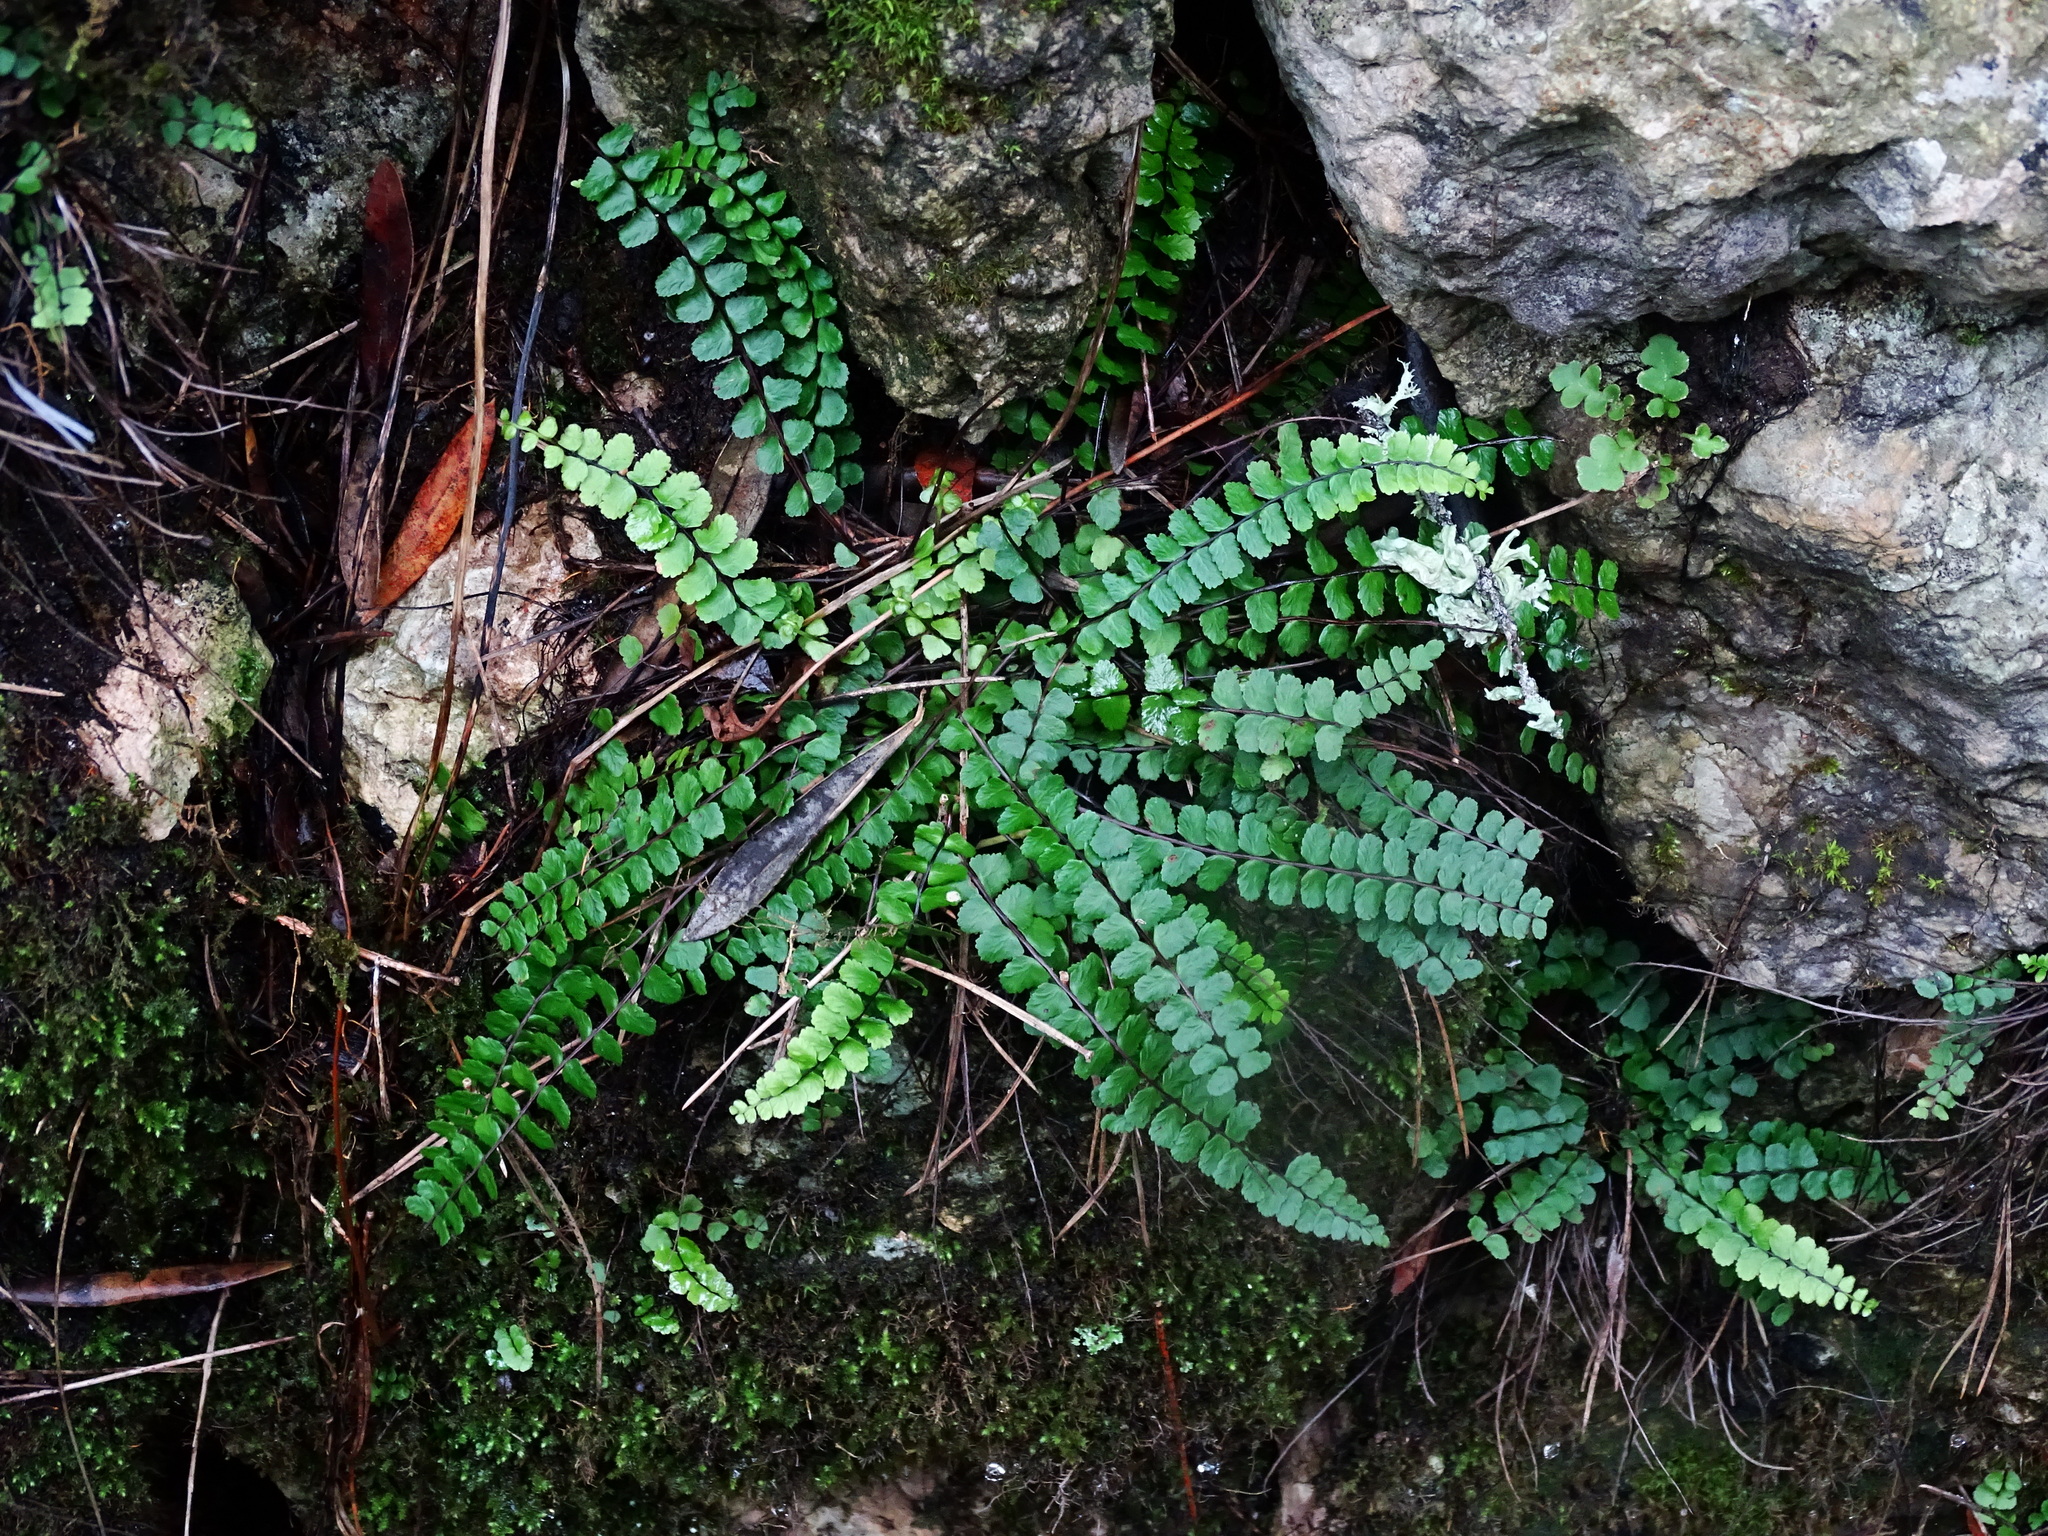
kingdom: Plantae
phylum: Tracheophyta
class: Polypodiopsida
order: Polypodiales
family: Aspleniaceae
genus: Asplenium
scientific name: Asplenium trichomanes
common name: Maidenhair spleenwort
